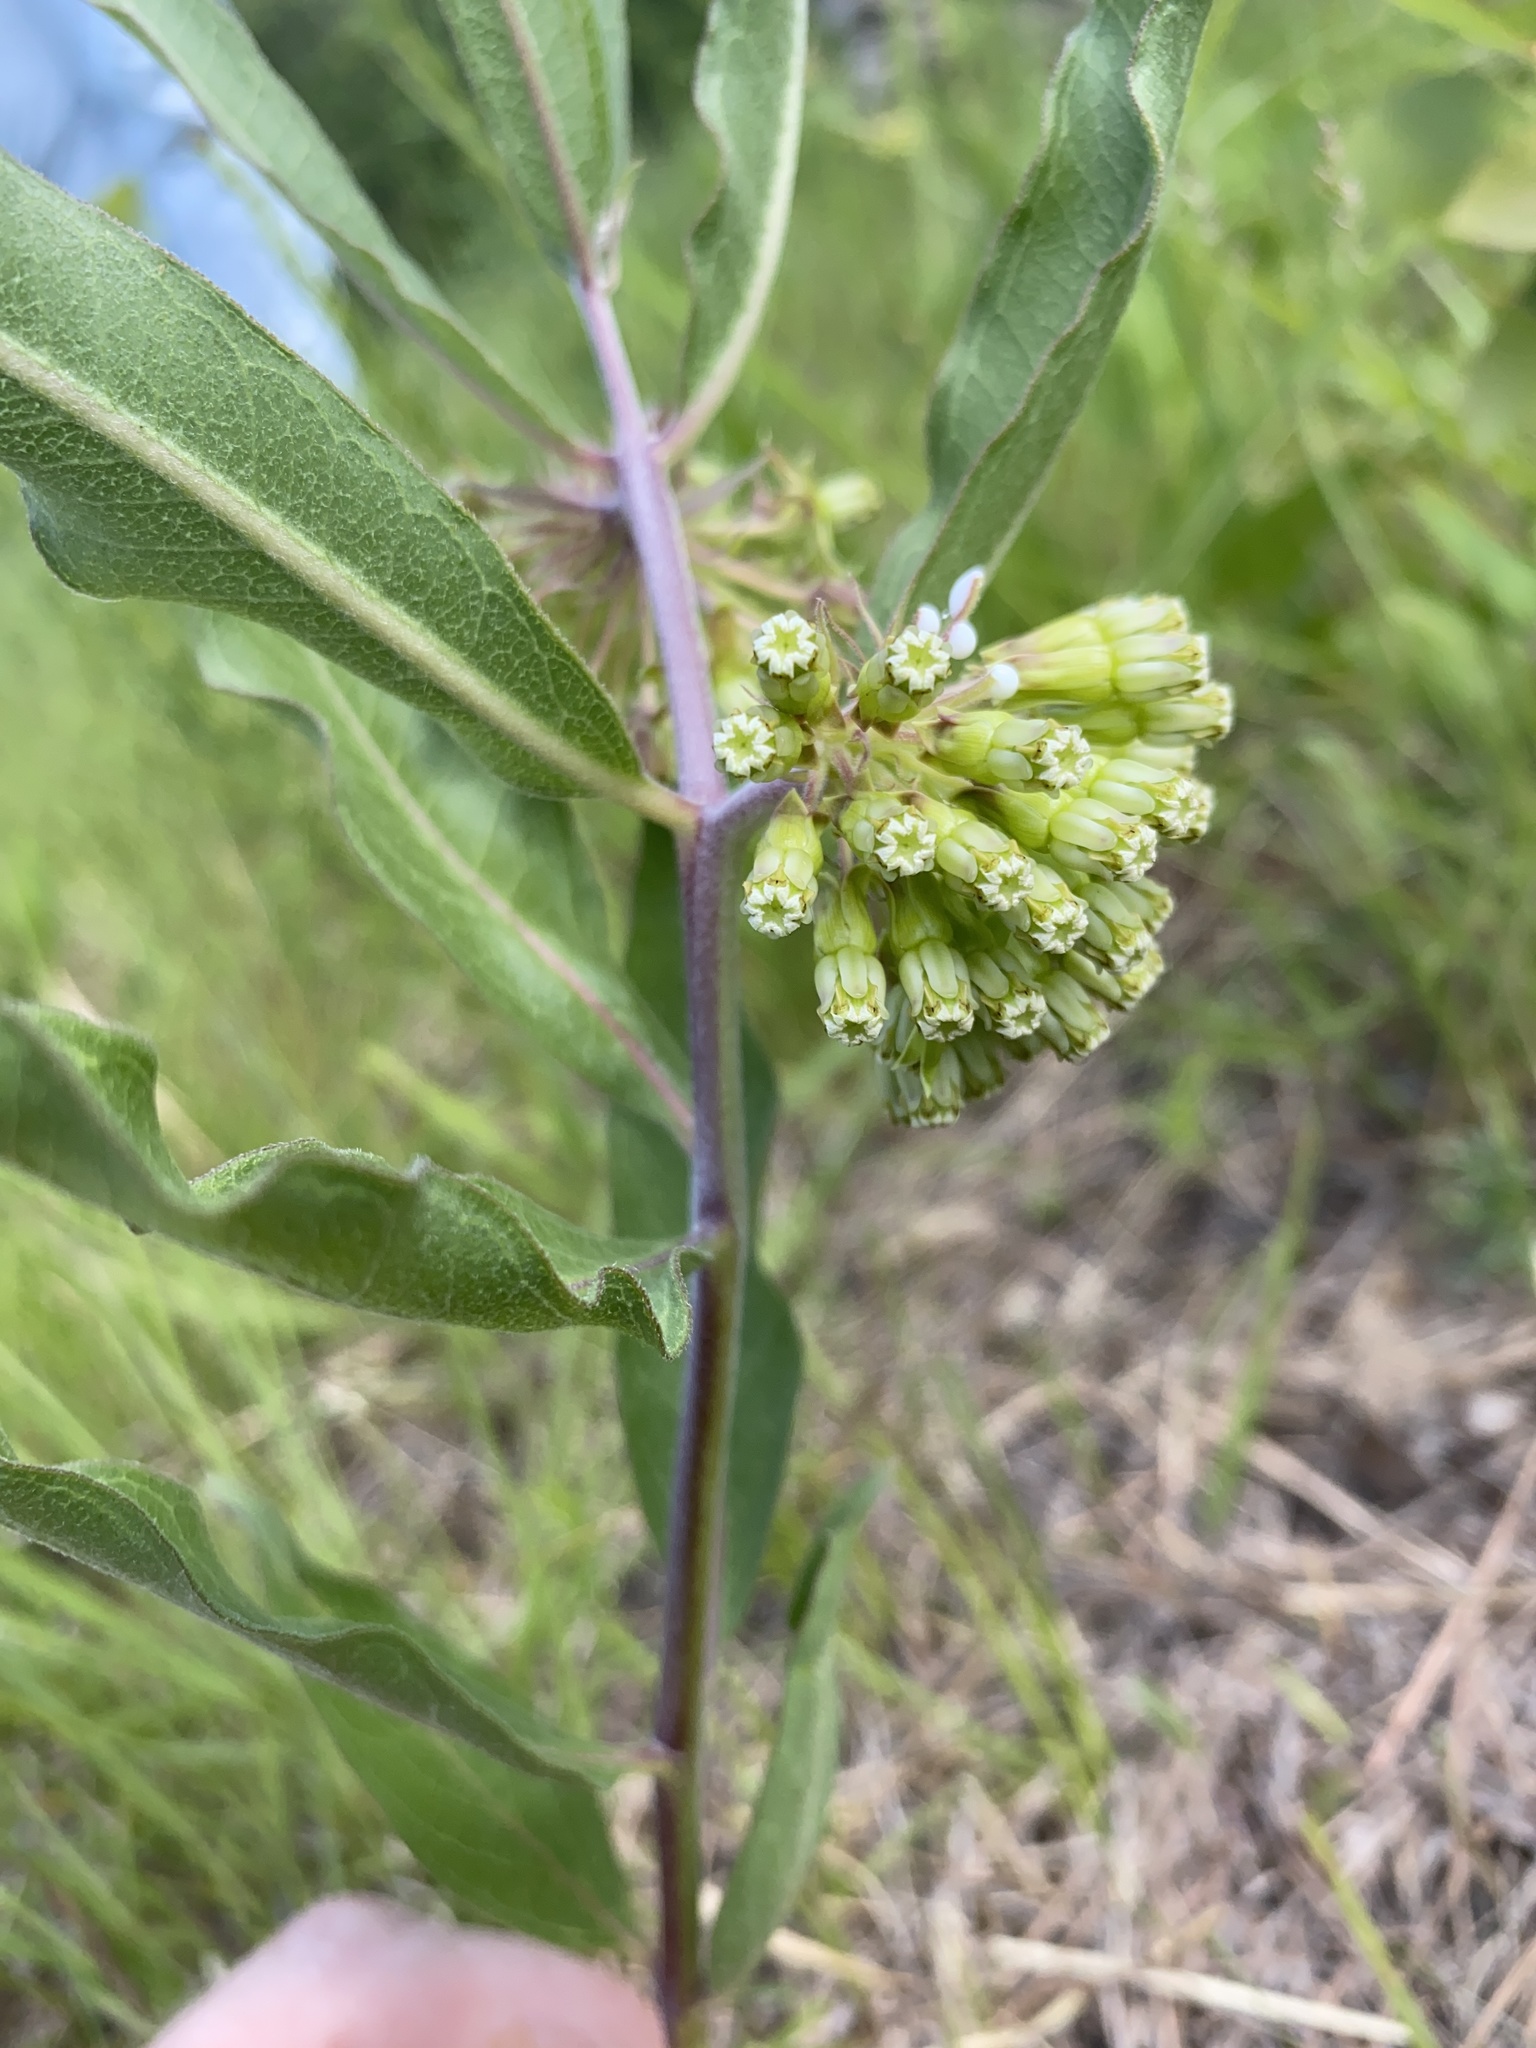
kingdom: Plantae
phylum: Tracheophyta
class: Magnoliopsida
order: Gentianales
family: Apocynaceae
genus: Asclepias
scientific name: Asclepias viridiflora
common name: Green comet milkweed
